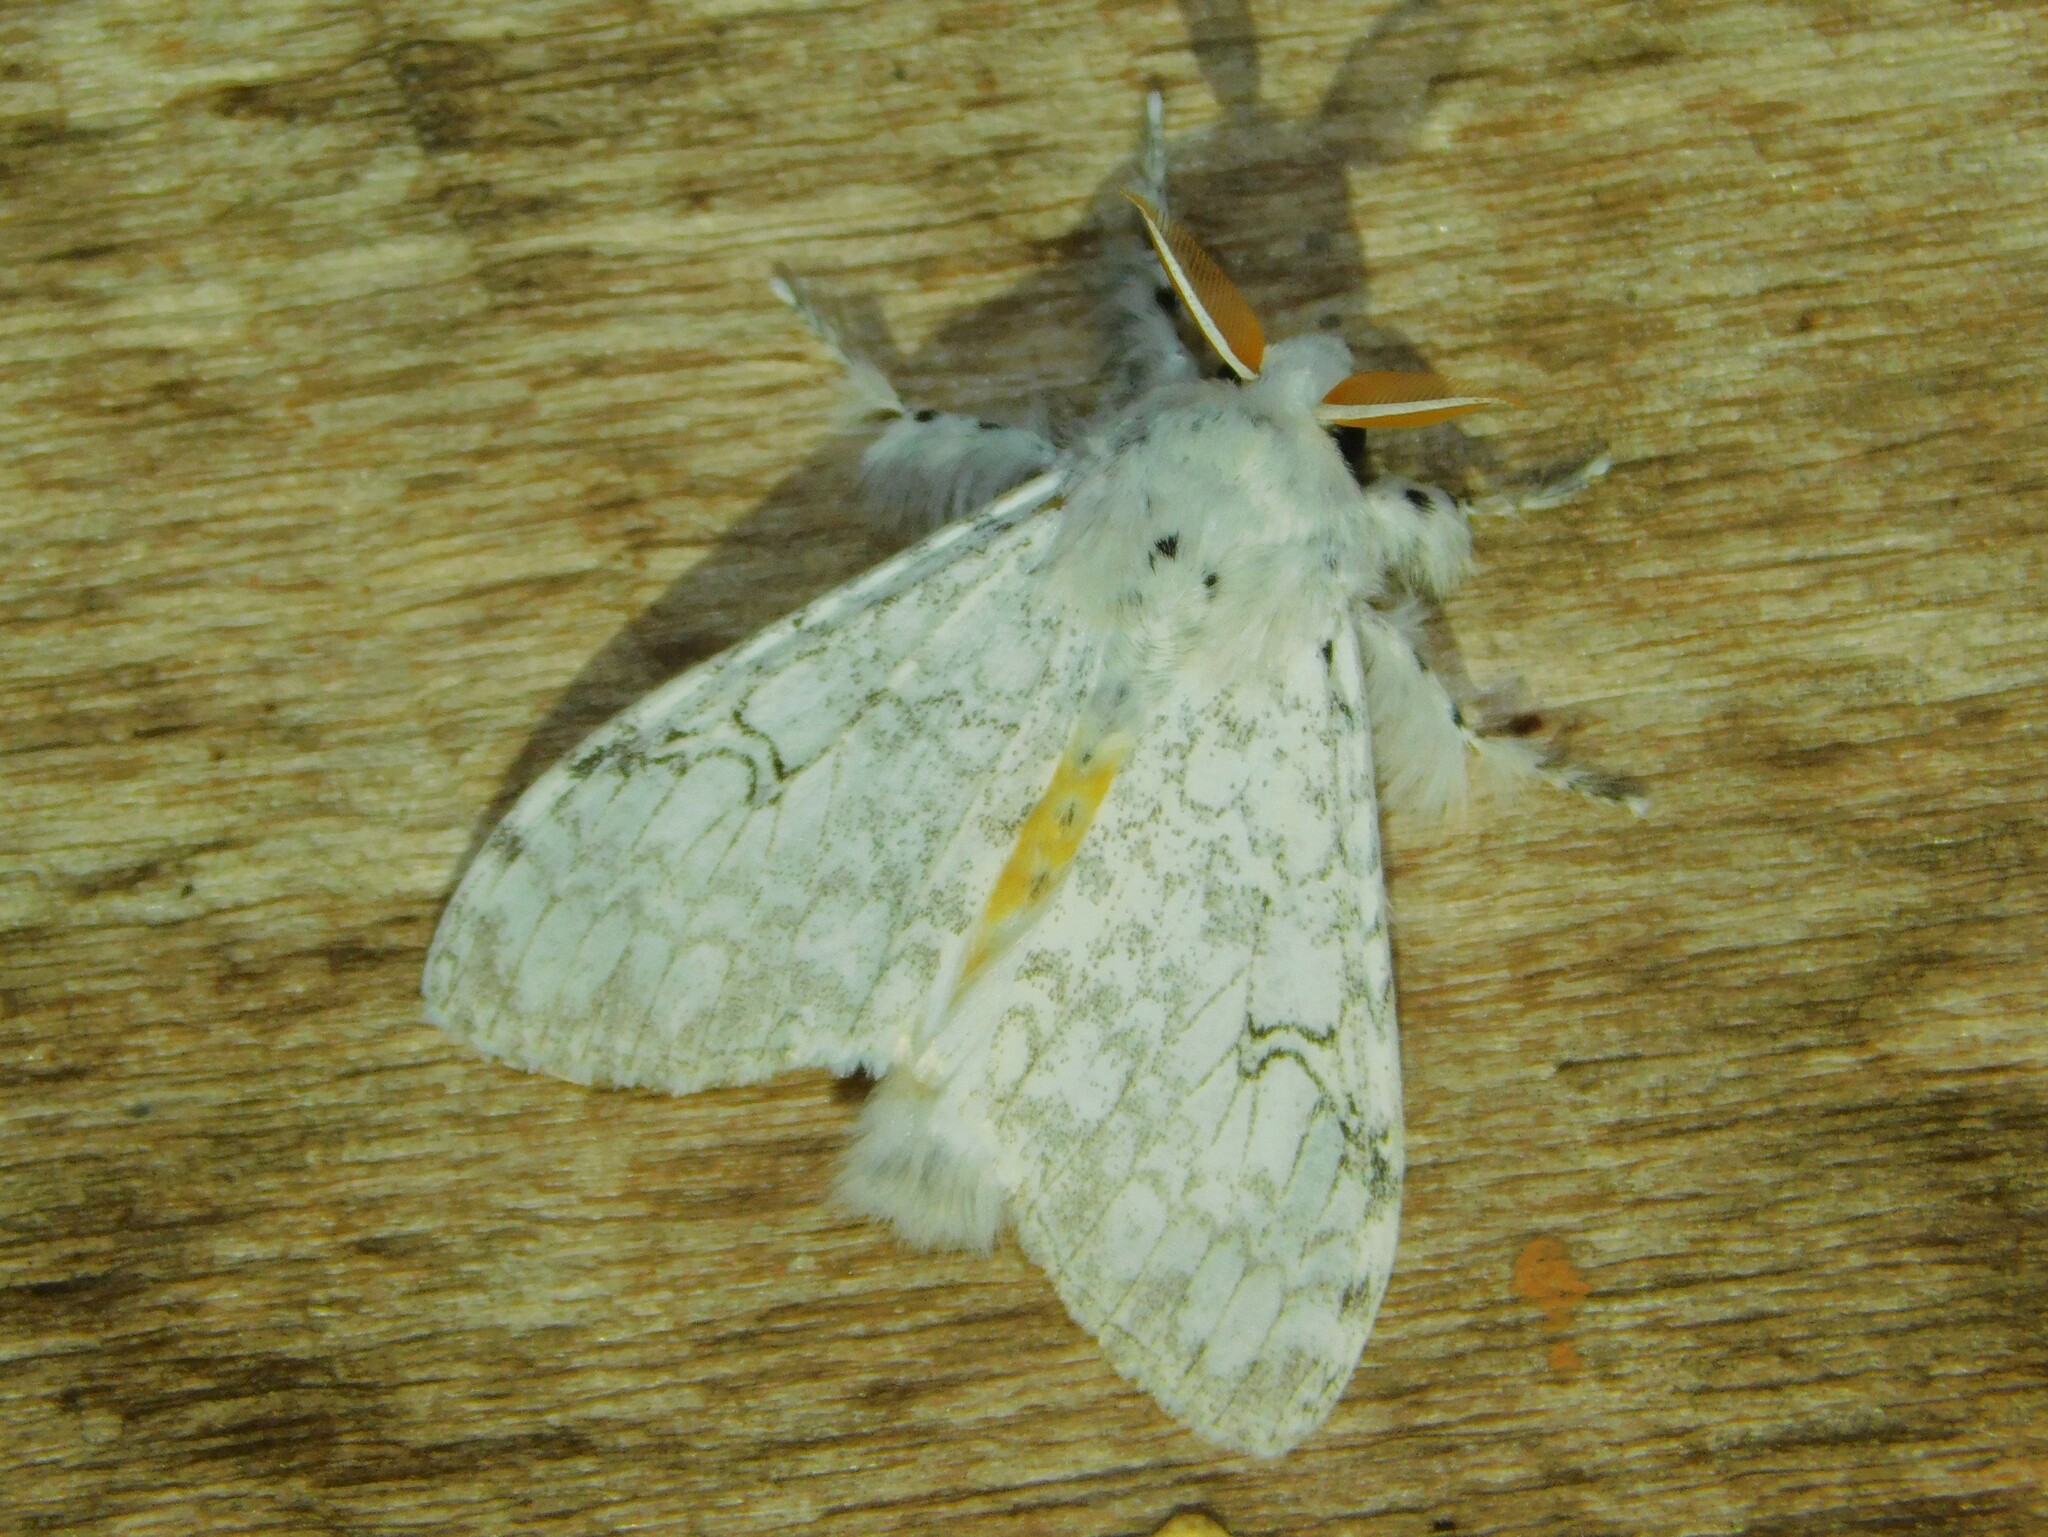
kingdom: Animalia
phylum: Arthropoda
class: Insecta
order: Lepidoptera
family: Erebidae
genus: Dasychira
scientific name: Dasychira georgiana
